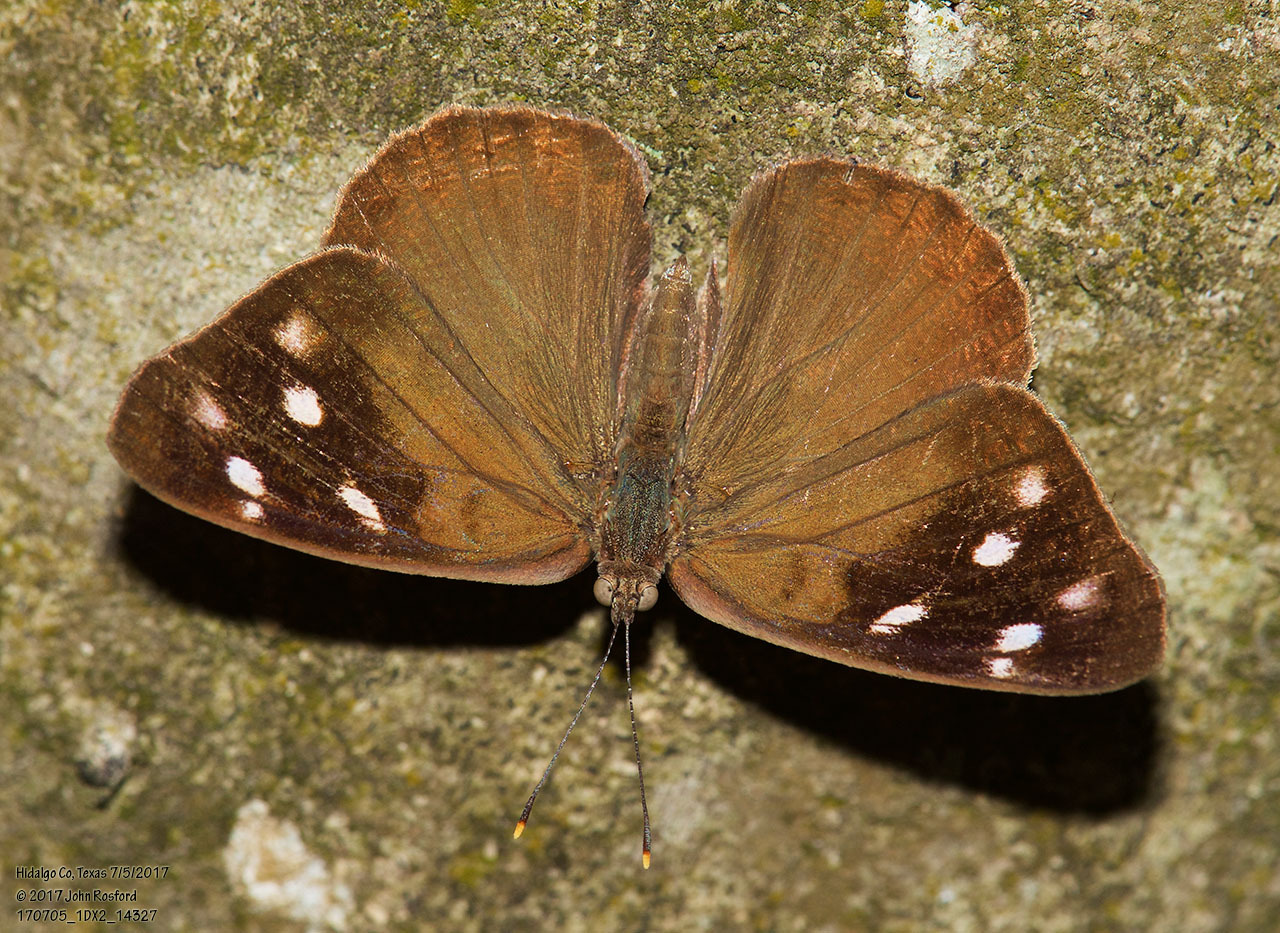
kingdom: Animalia
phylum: Arthropoda
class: Insecta
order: Lepidoptera
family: Nymphalidae
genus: Eunica
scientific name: Eunica monima
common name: Dingy purplewing
